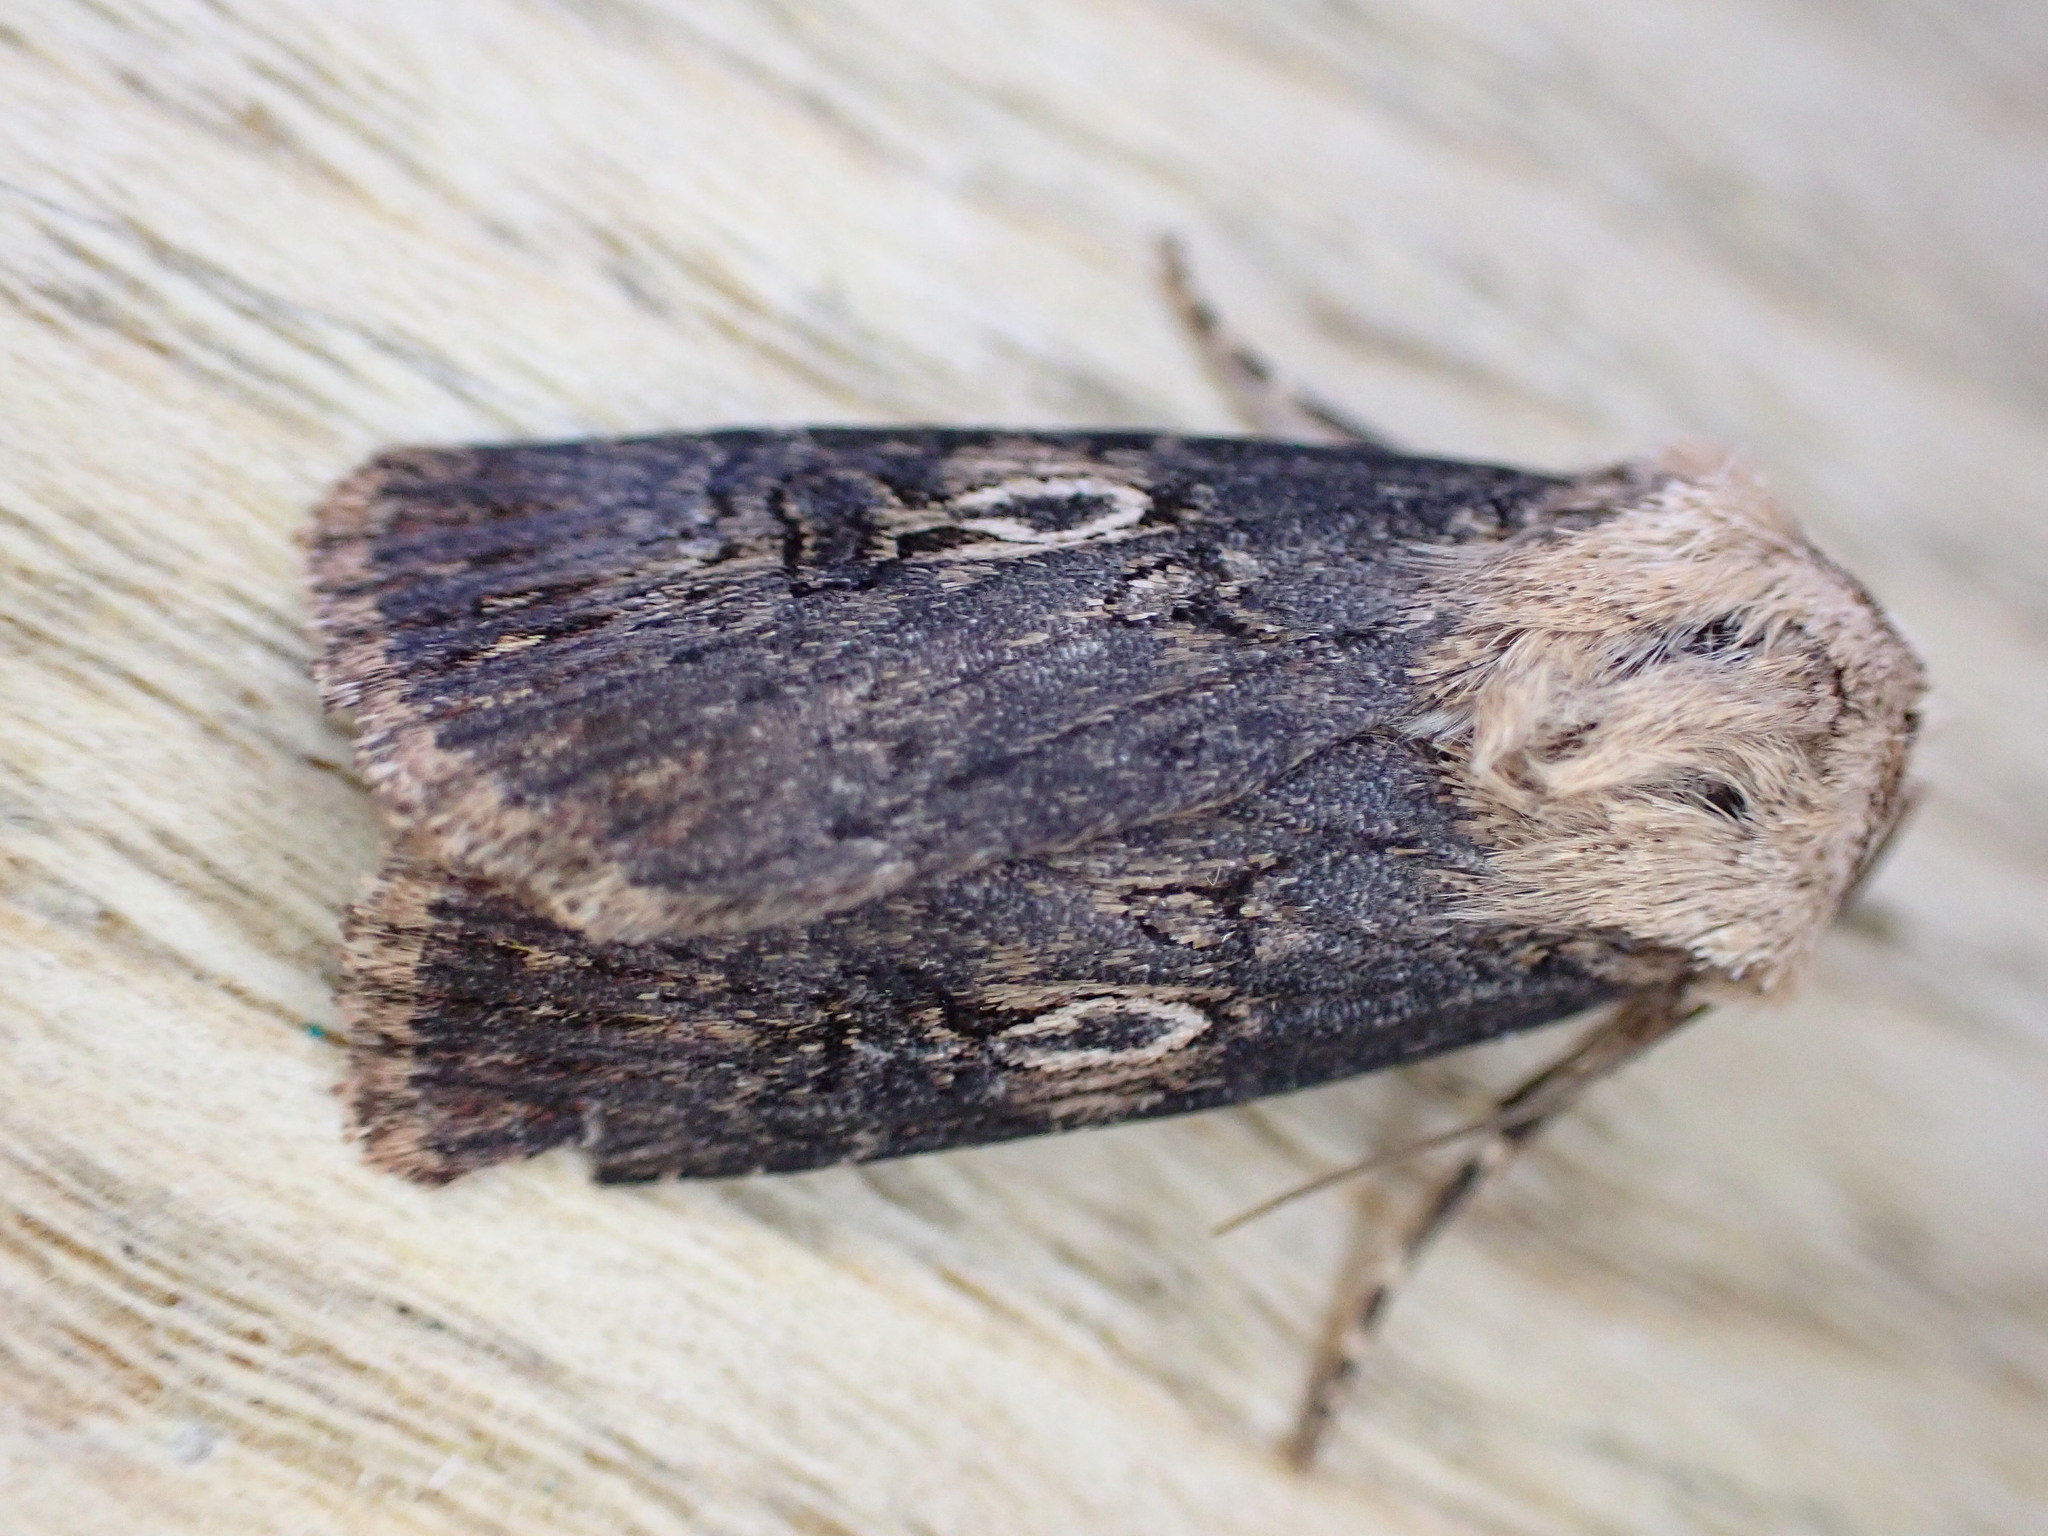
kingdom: Animalia
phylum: Arthropoda
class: Insecta
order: Lepidoptera
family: Noctuidae
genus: Agrotis
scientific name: Agrotis puta
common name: Shuttle-shaped dart
